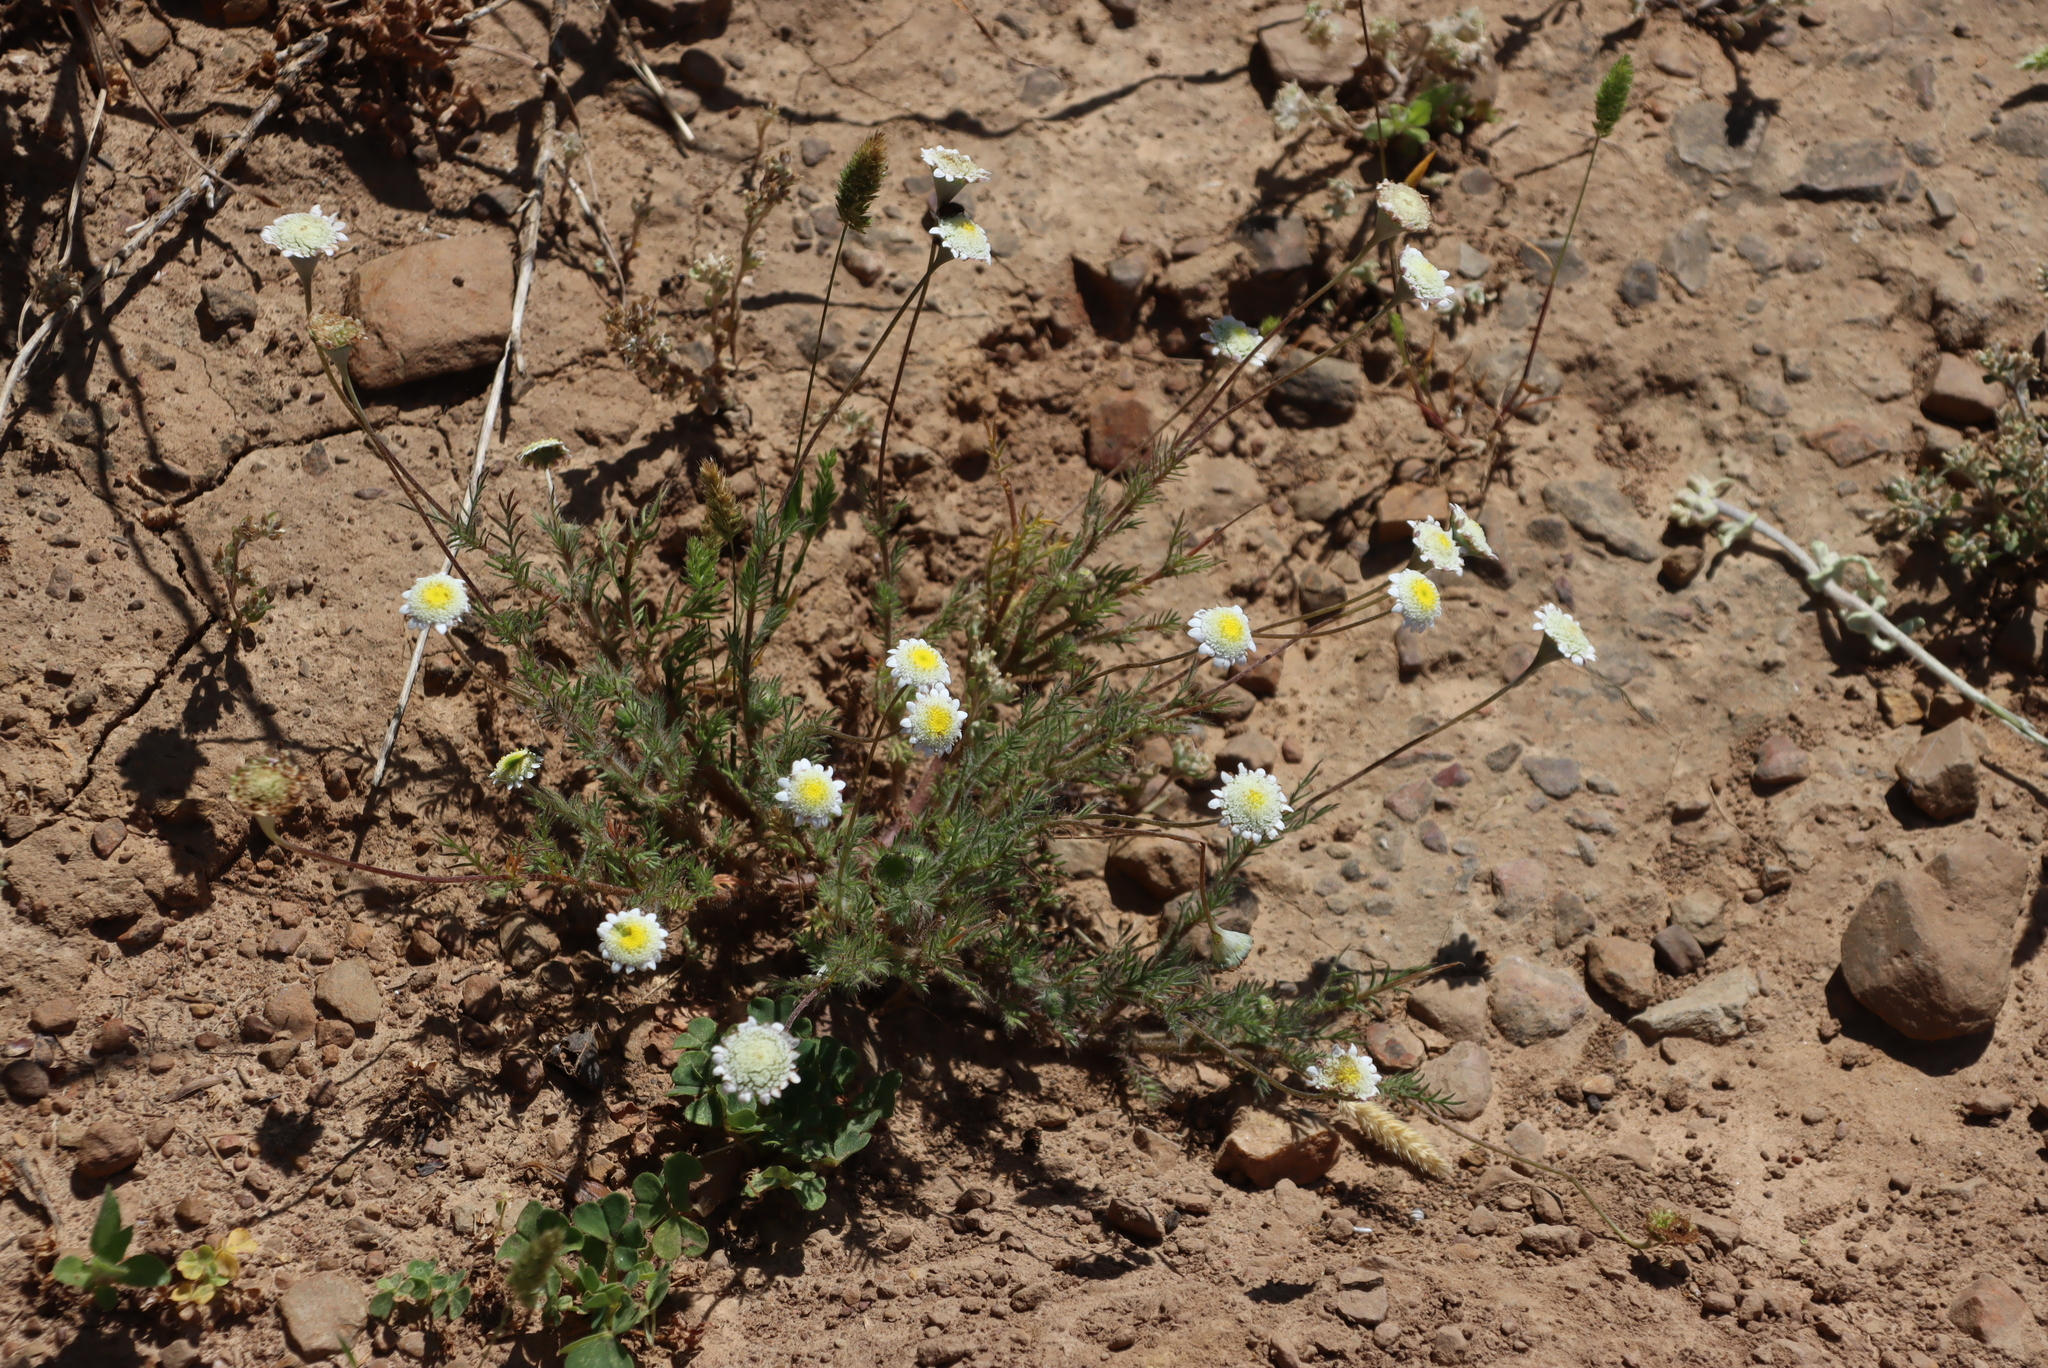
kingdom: Plantae
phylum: Tracheophyta
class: Magnoliopsida
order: Asterales
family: Asteraceae
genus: Cotula
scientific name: Cotula turbinata
